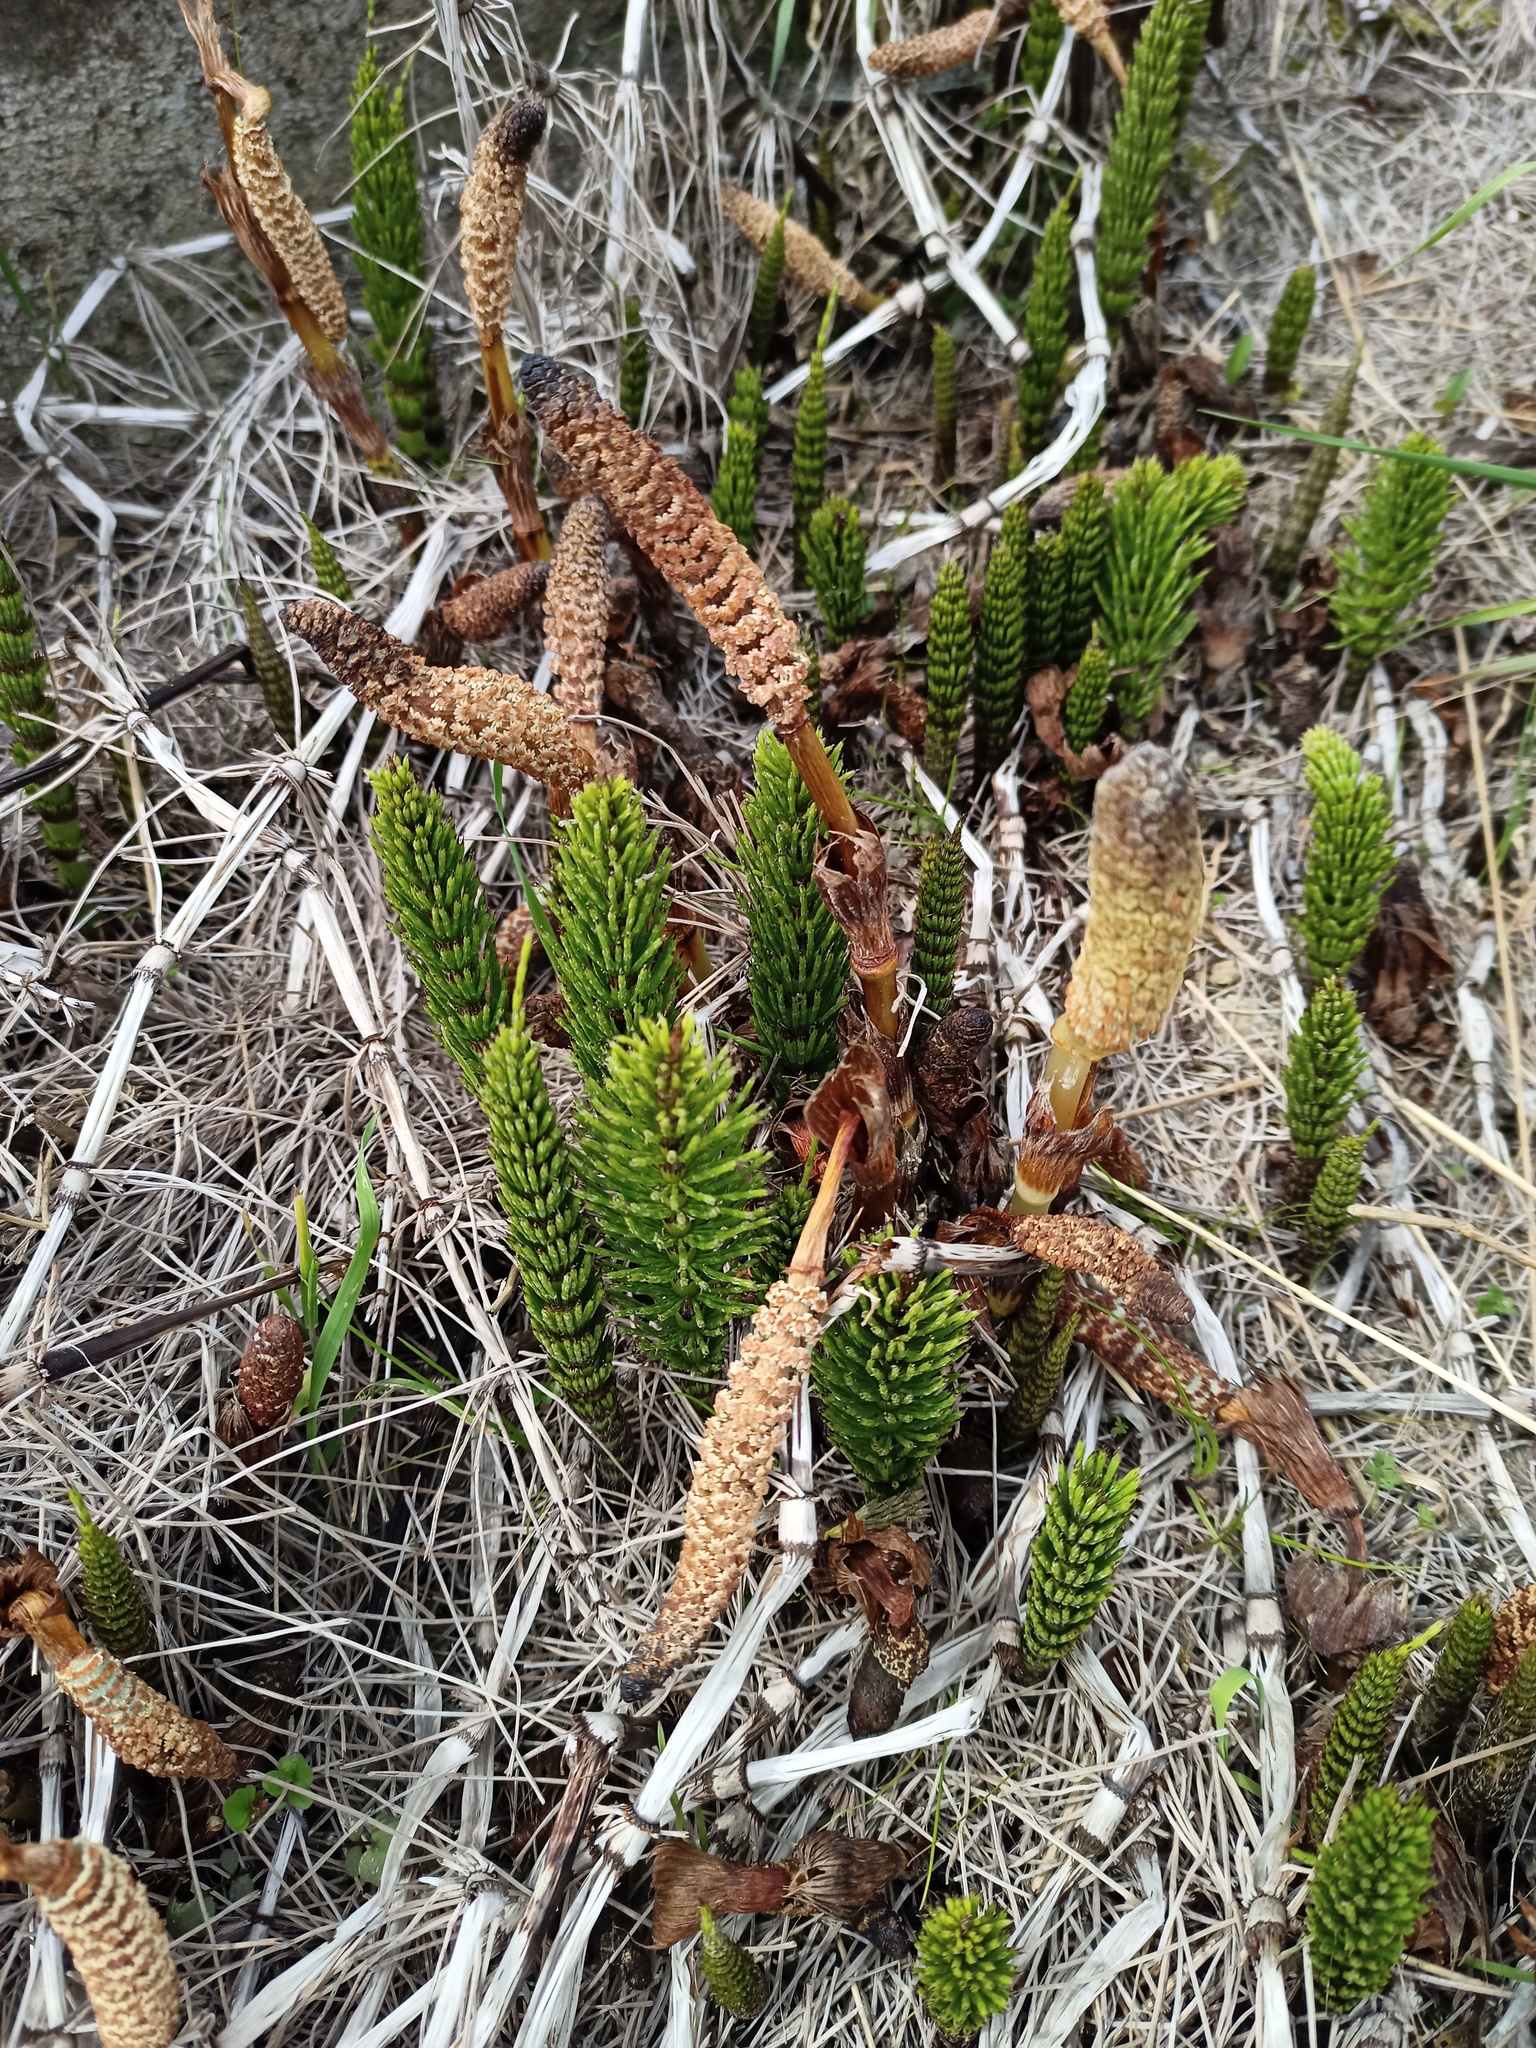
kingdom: Plantae
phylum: Tracheophyta
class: Polypodiopsida
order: Equisetales
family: Equisetaceae
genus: Equisetum
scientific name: Equisetum telmateia
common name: Great horsetail
